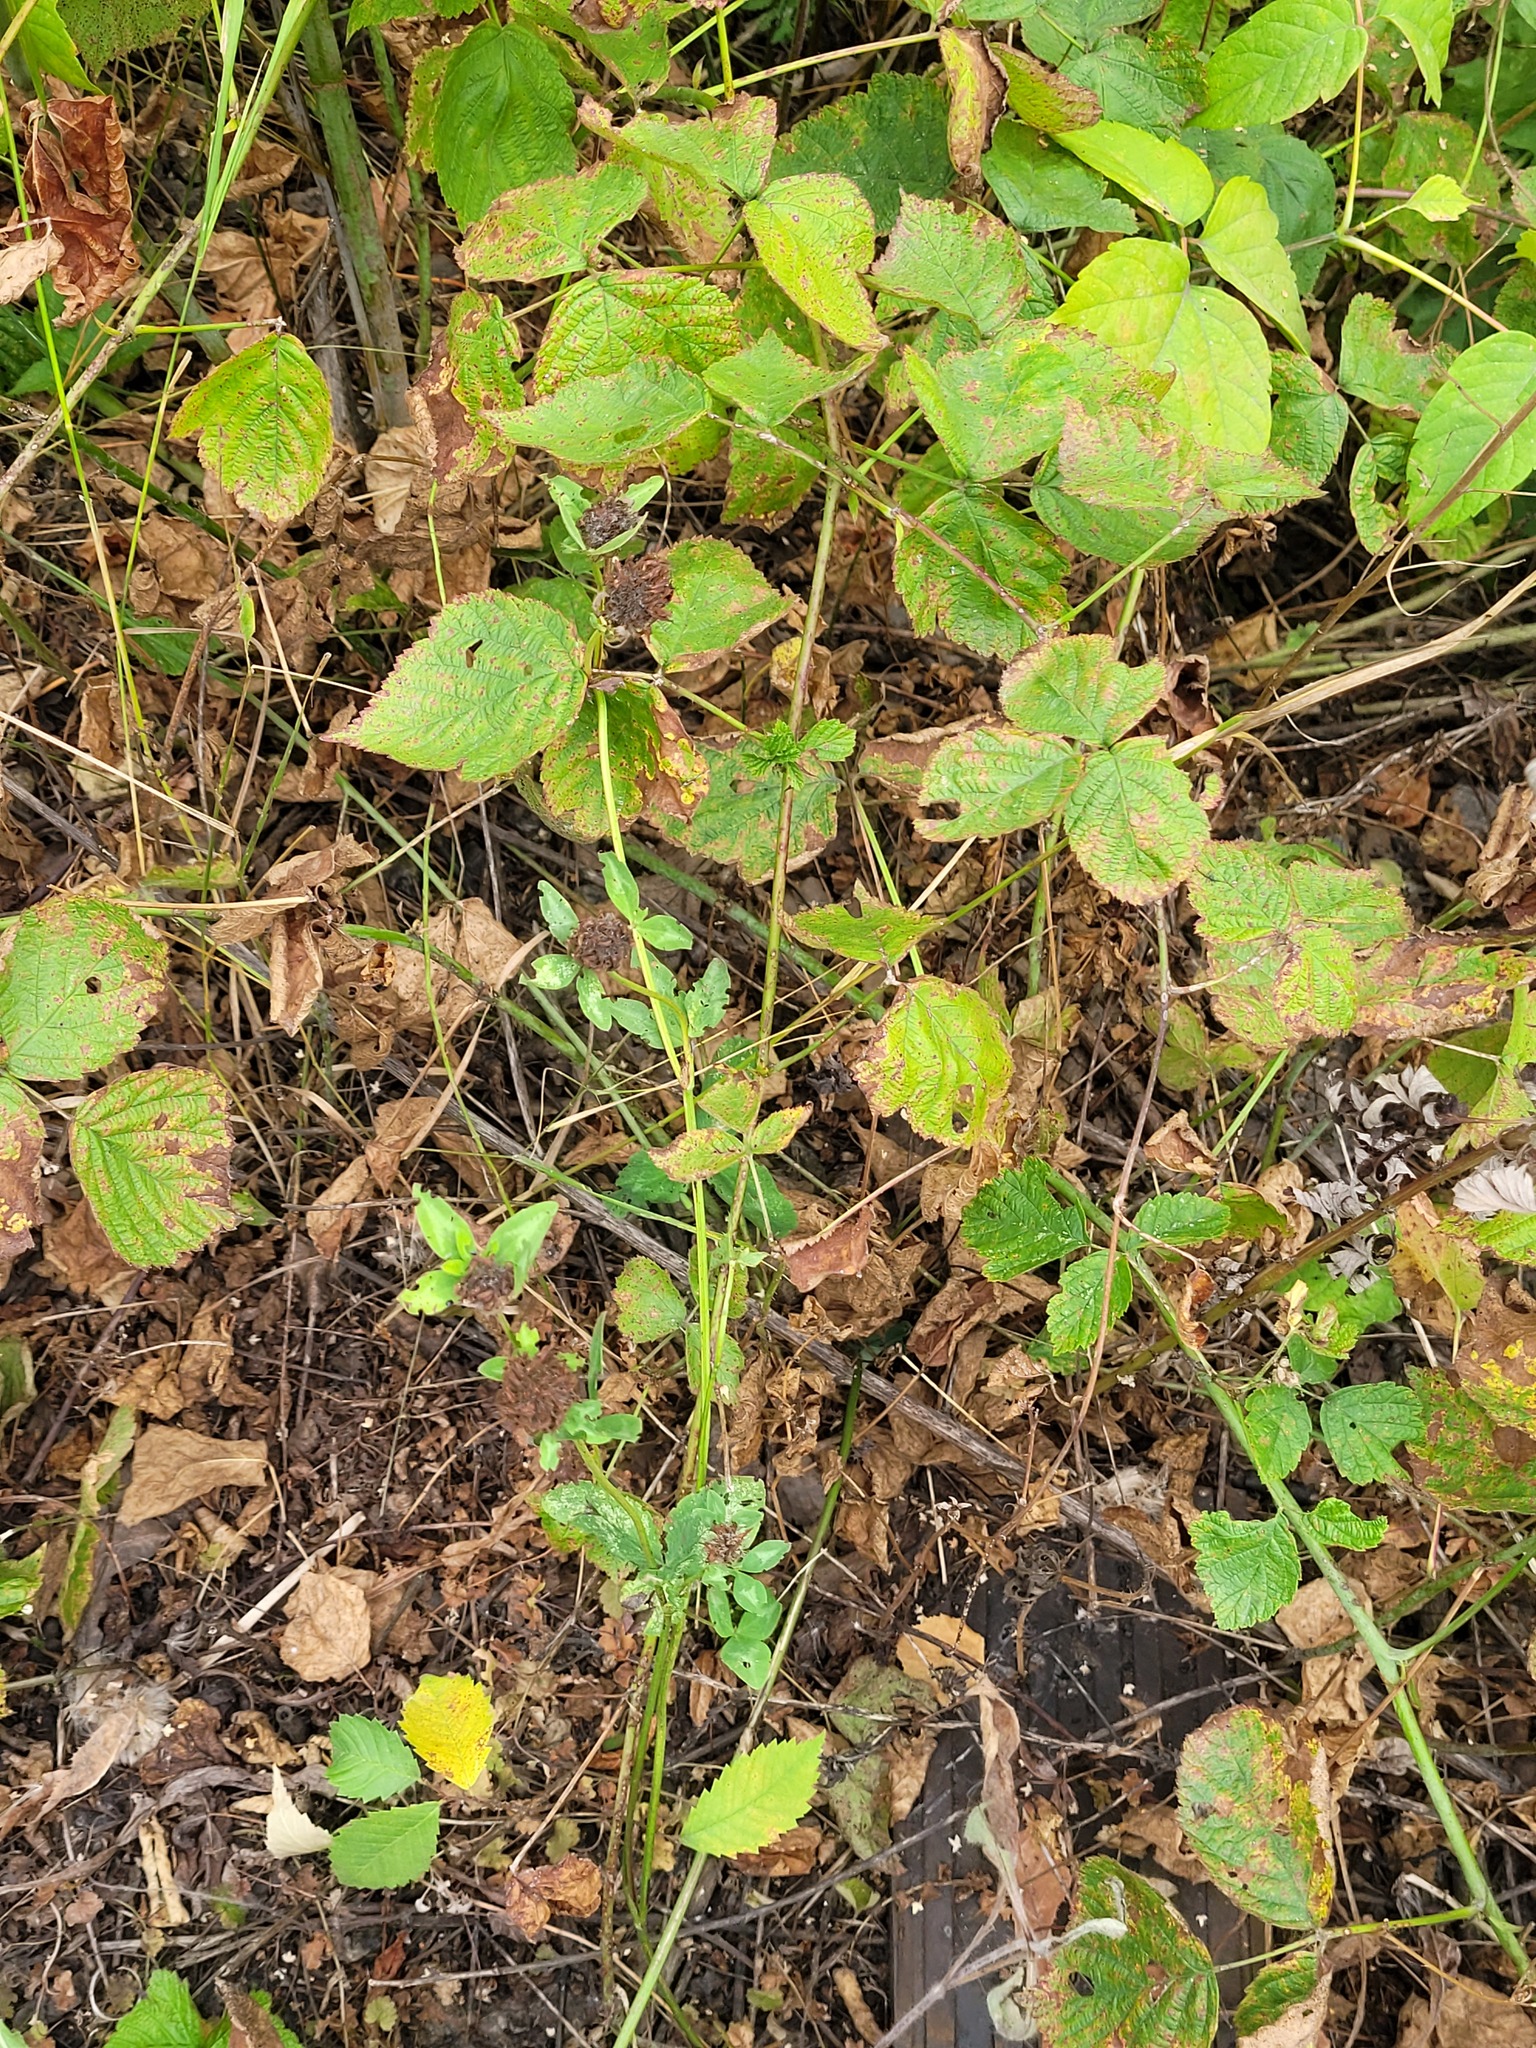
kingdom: Plantae
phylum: Tracheophyta
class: Magnoliopsida
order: Fabales
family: Fabaceae
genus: Trifolium
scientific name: Trifolium pratense
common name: Red clover
